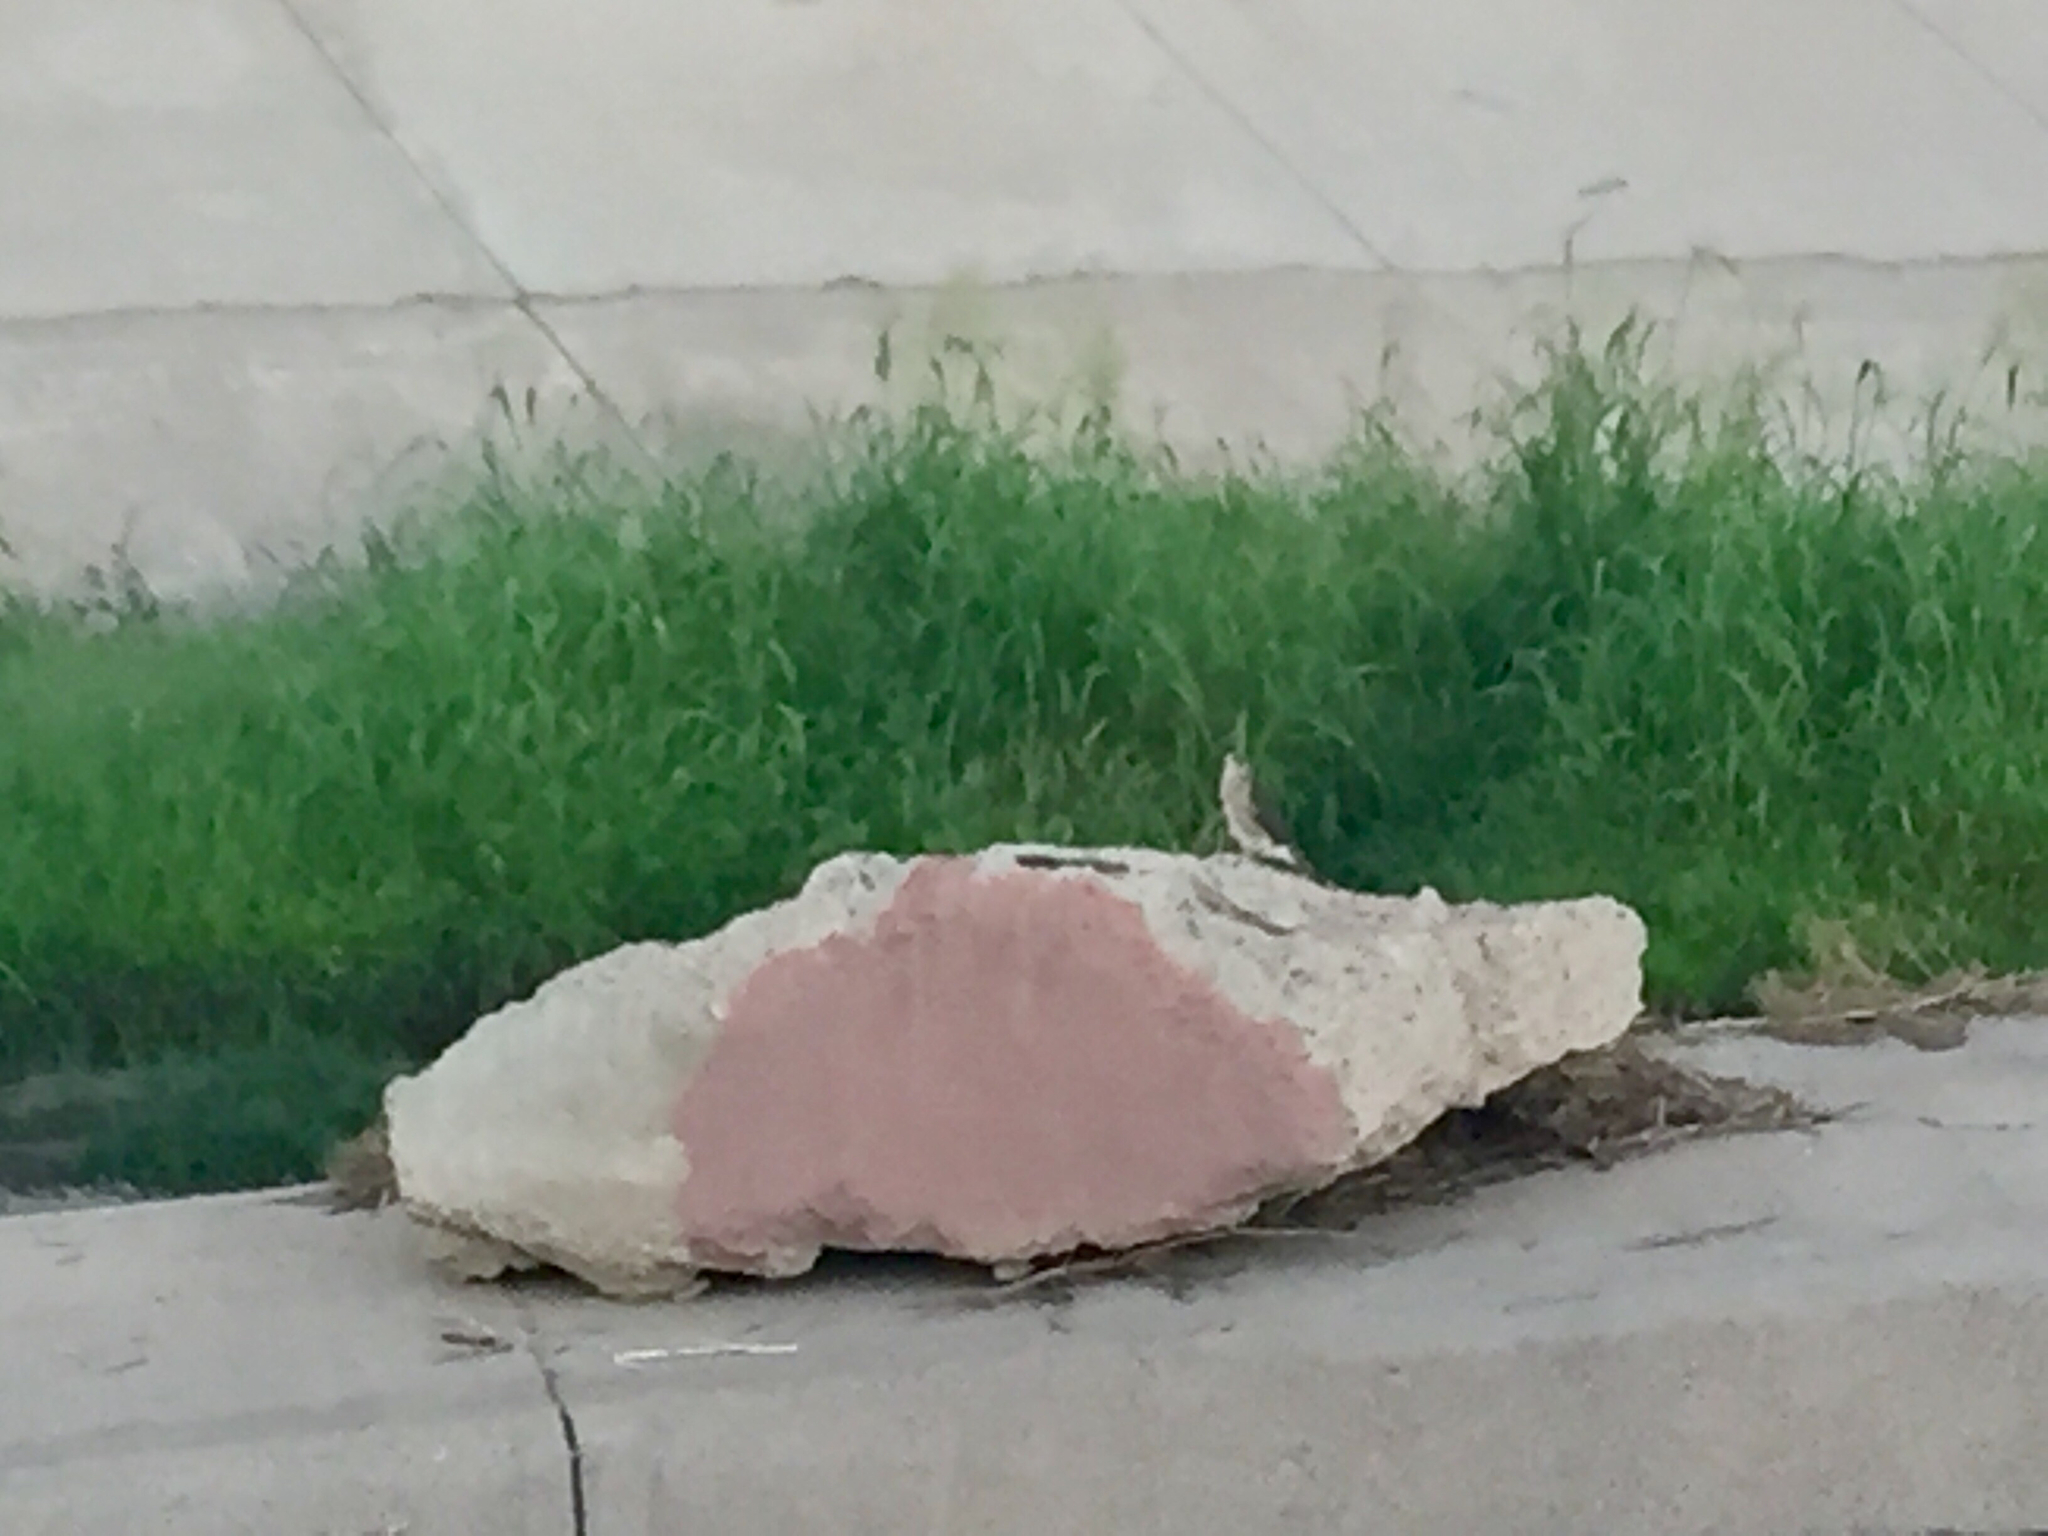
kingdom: Animalia
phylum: Chordata
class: Aves
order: Accipitriformes
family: Accipitridae
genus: Accipiter
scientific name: Accipiter cooperii
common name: Cooper's hawk
